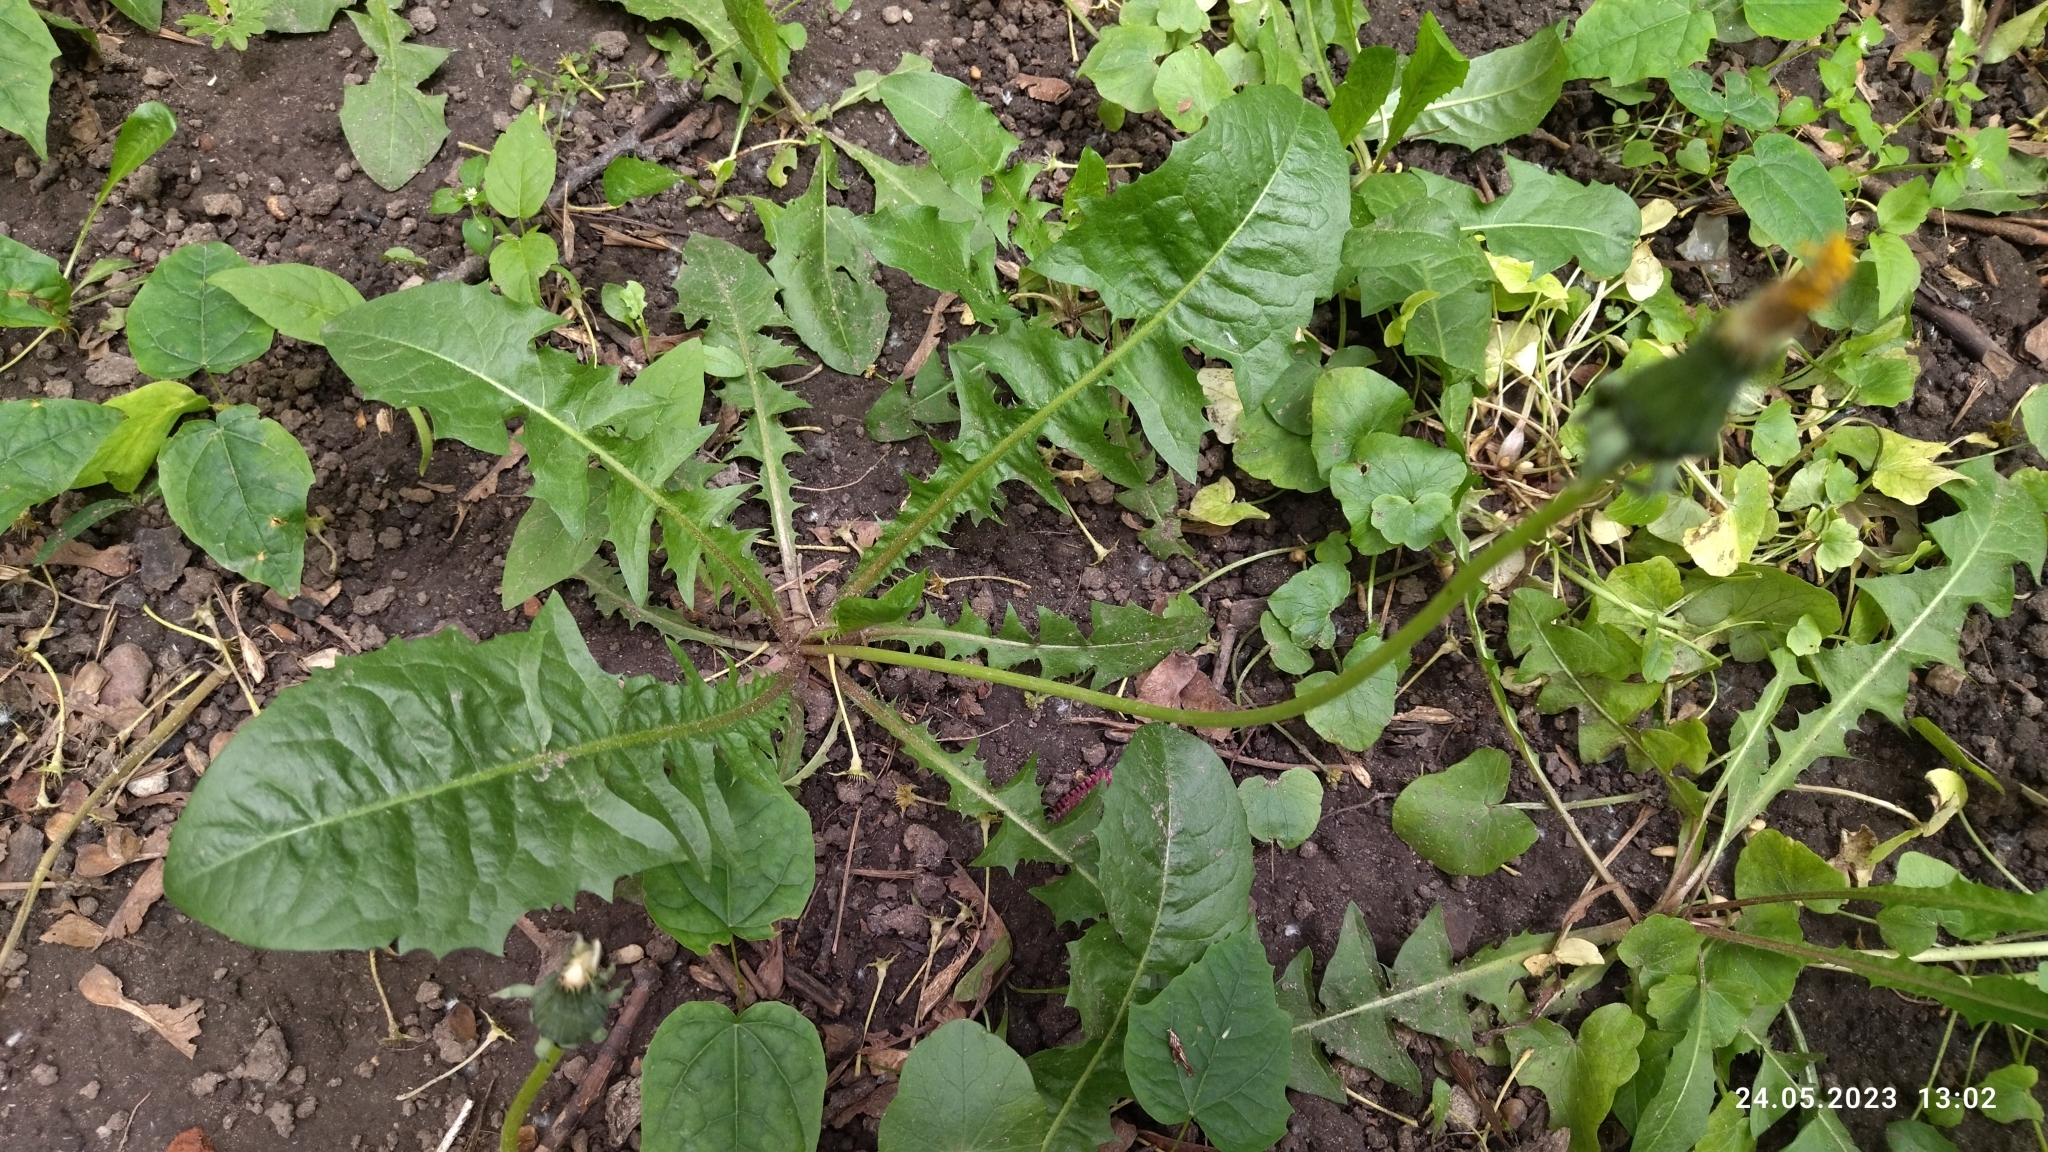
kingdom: Plantae
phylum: Tracheophyta
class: Magnoliopsida
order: Asterales
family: Asteraceae
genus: Taraxacum
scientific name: Taraxacum officinale
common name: Common dandelion
